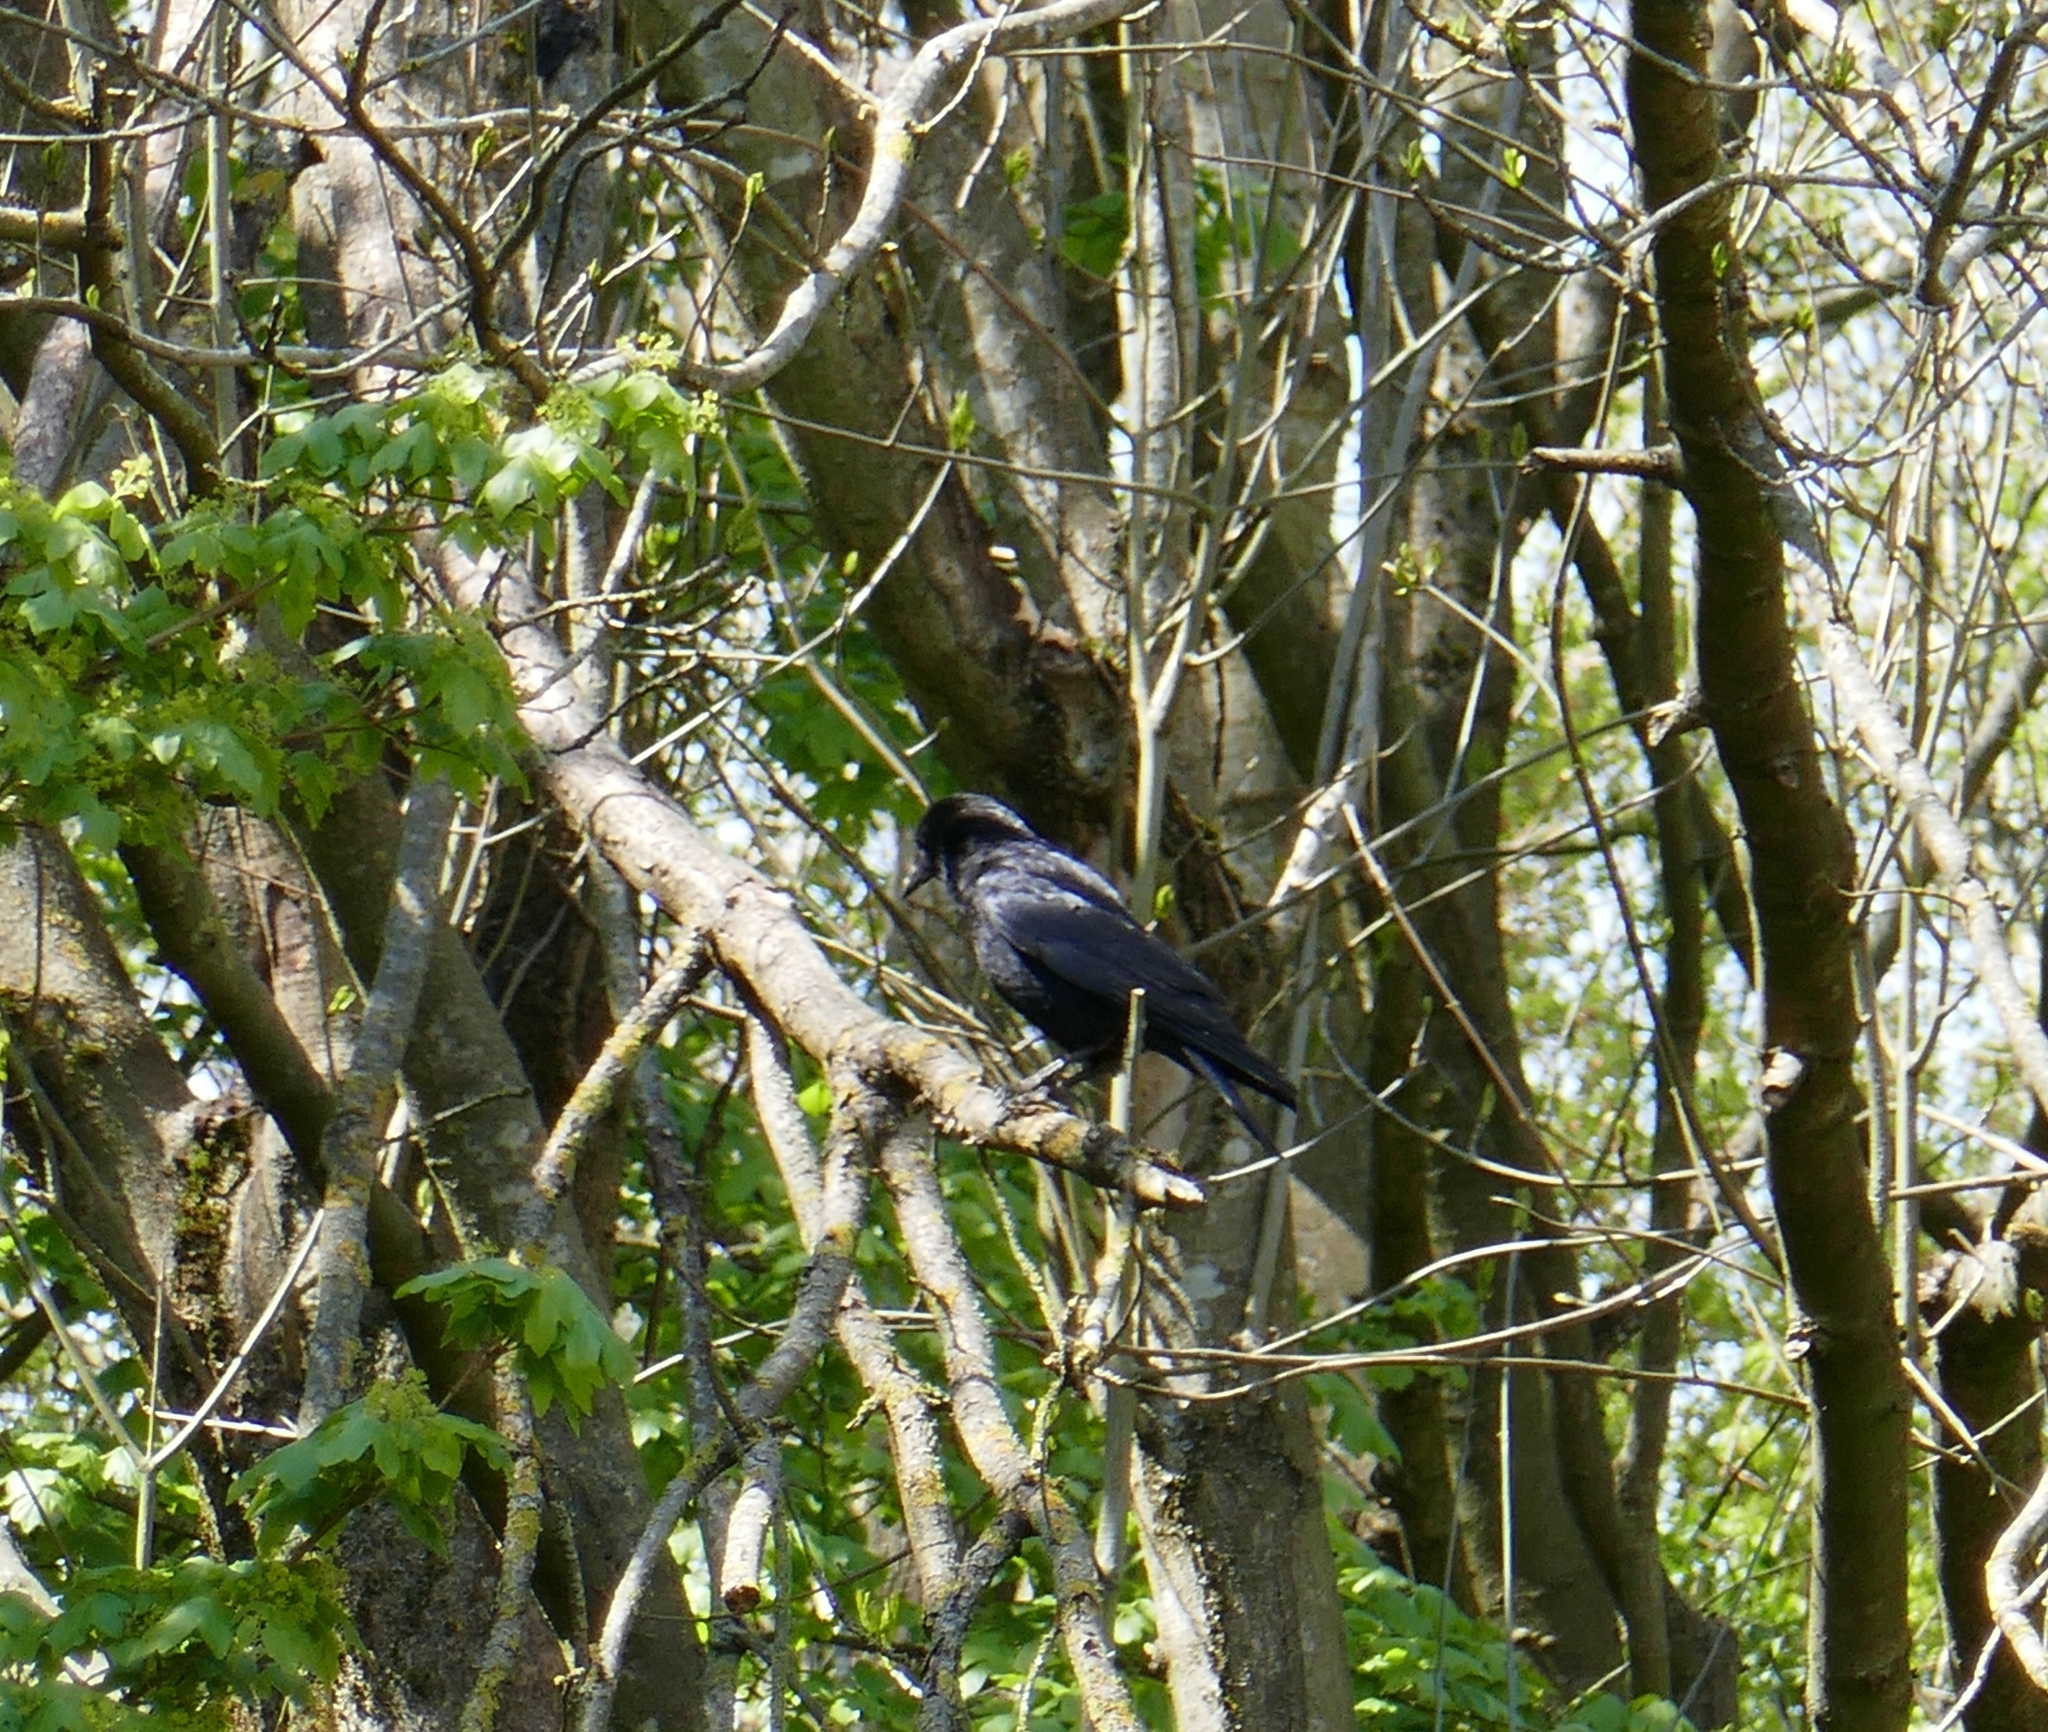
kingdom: Animalia
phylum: Chordata
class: Aves
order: Passeriformes
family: Corvidae
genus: Corvus
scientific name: Corvus corone
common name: Carrion crow
